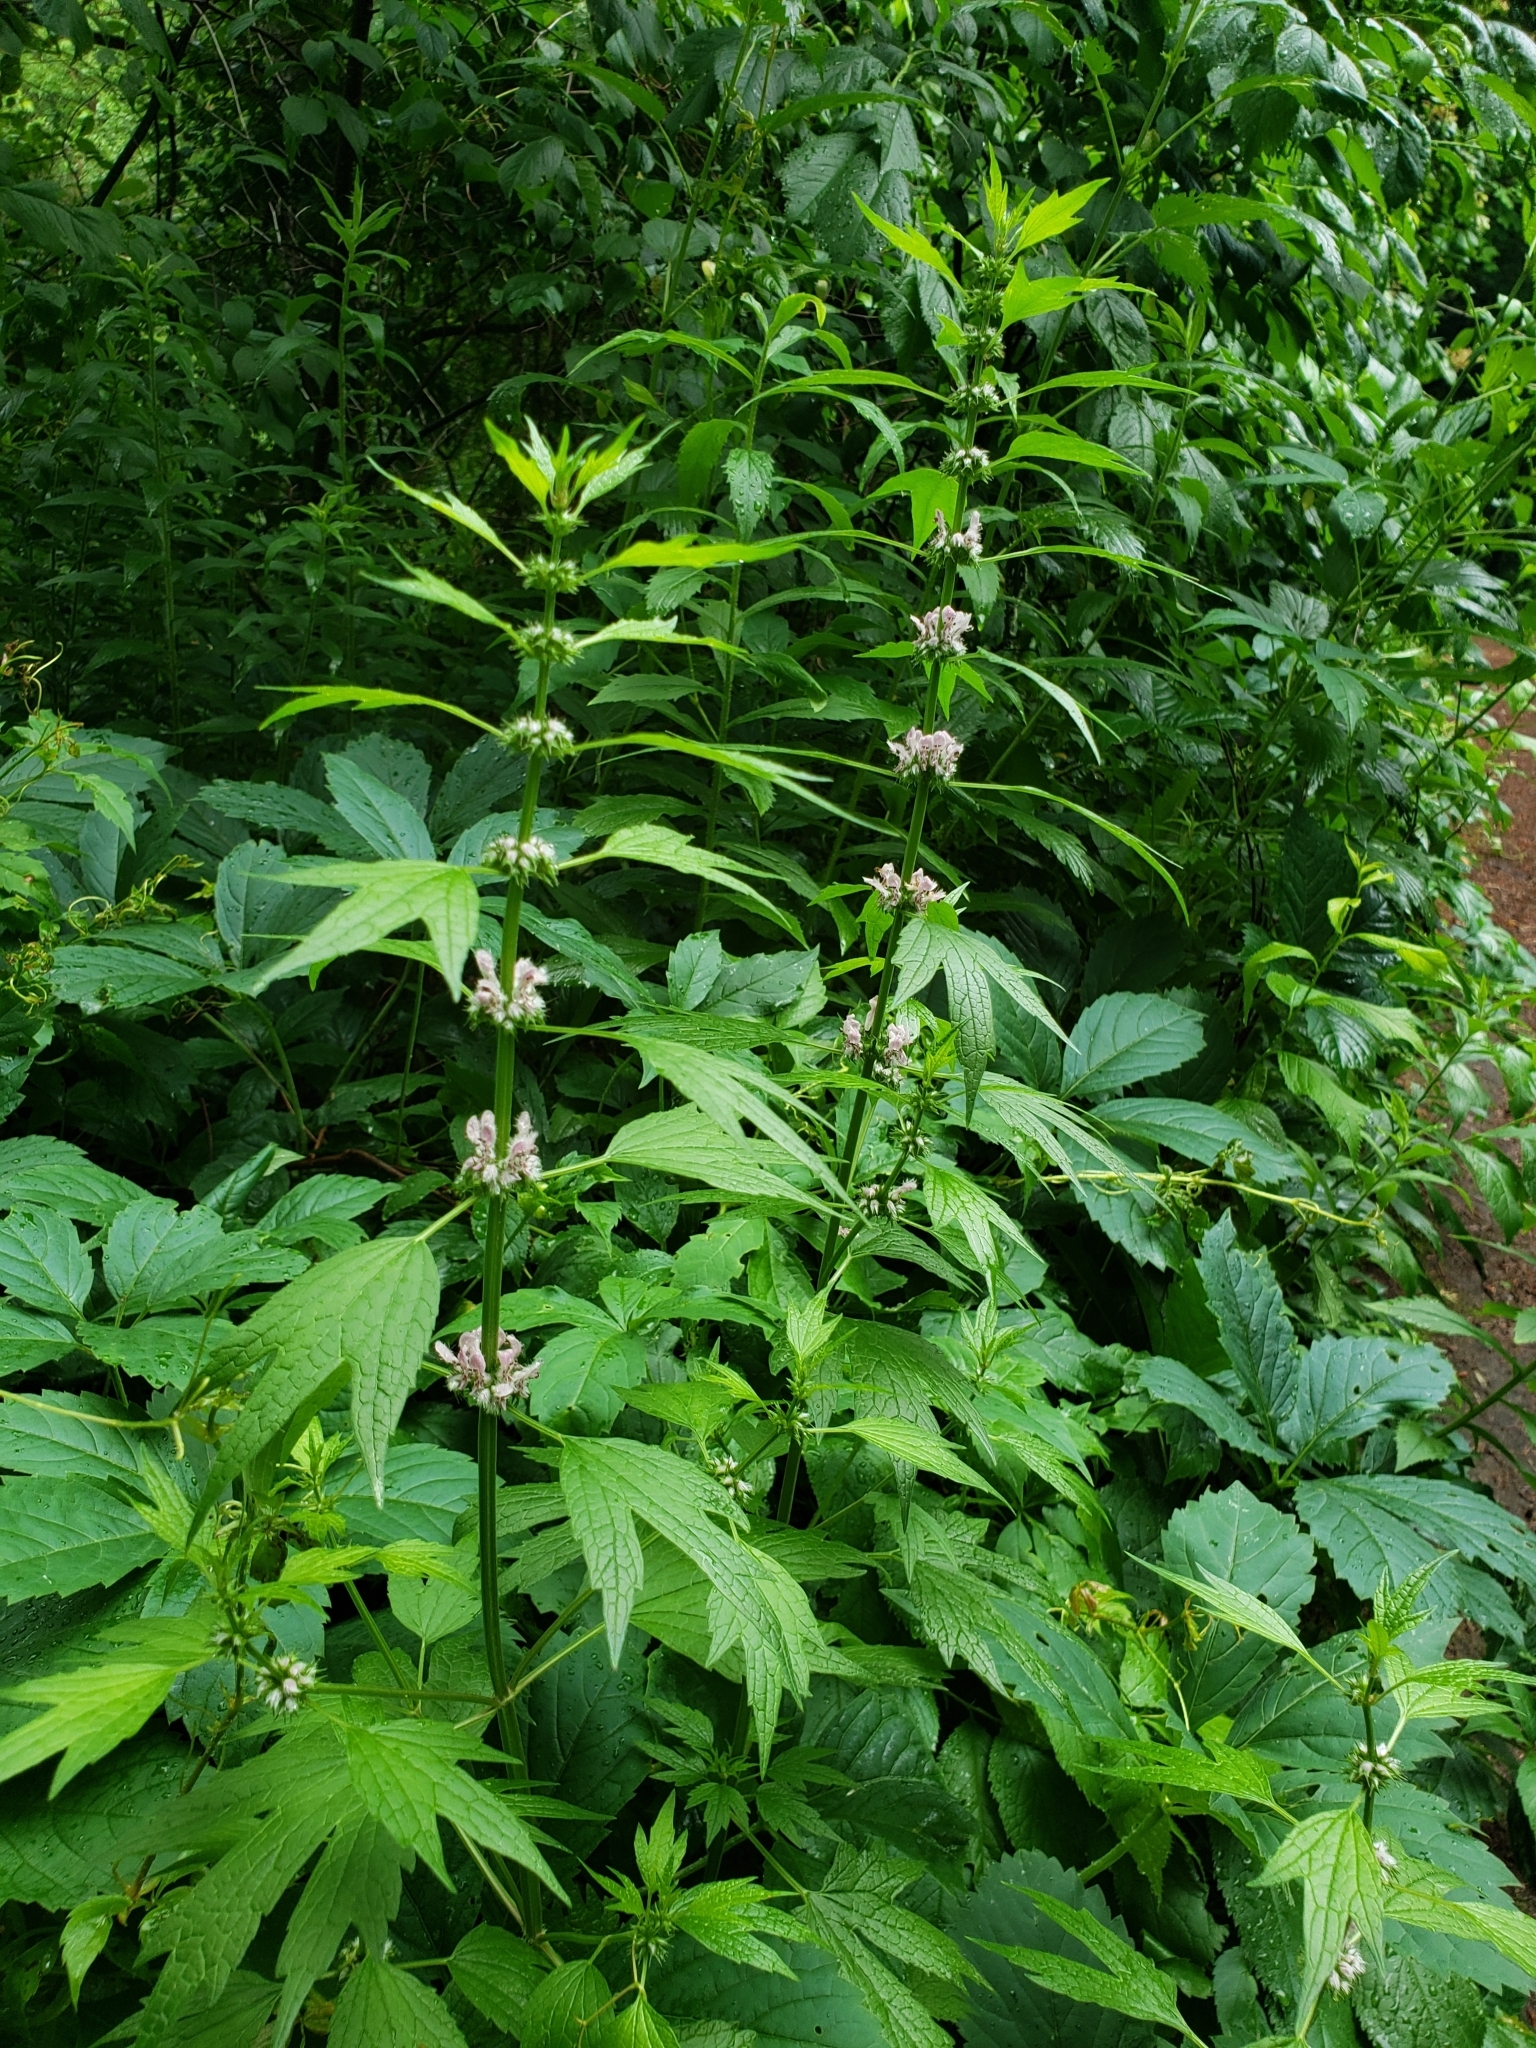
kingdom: Plantae
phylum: Tracheophyta
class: Magnoliopsida
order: Lamiales
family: Lamiaceae
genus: Leonurus
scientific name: Leonurus cardiaca
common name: Motherwort
